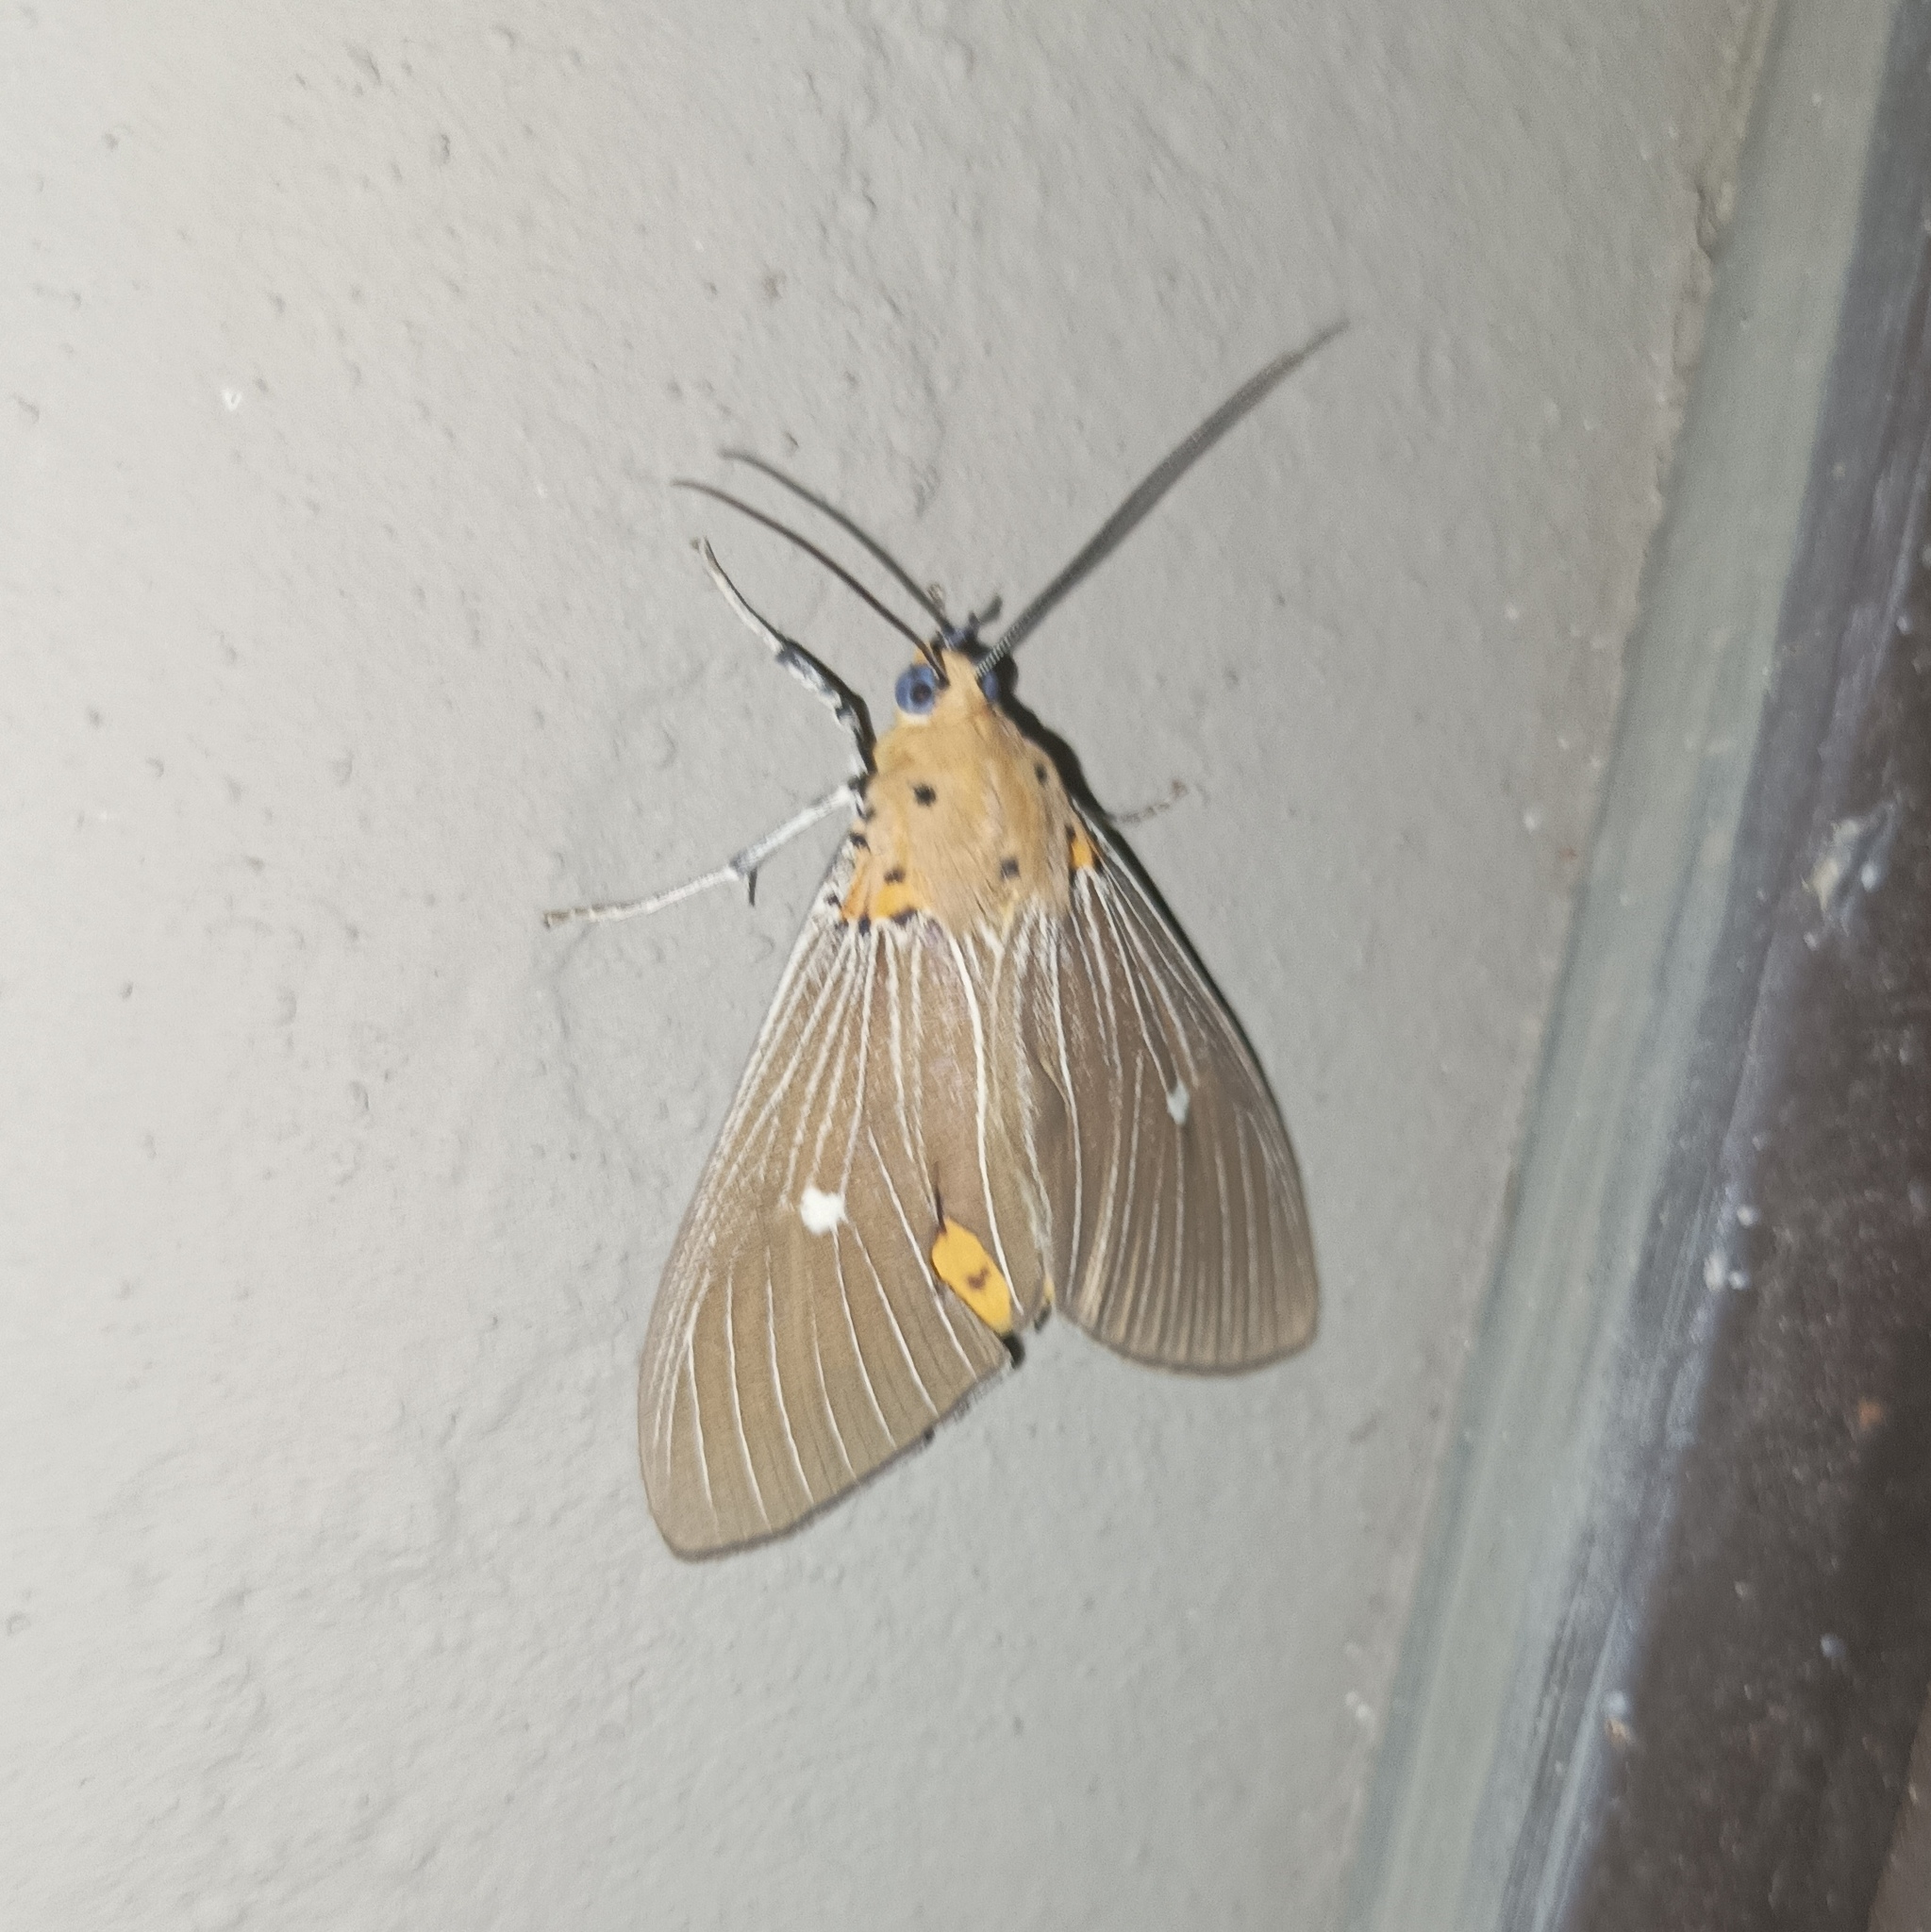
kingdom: Animalia
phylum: Arthropoda
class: Insecta
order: Lepidoptera
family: Erebidae
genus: Asota
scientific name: Asota caricae
